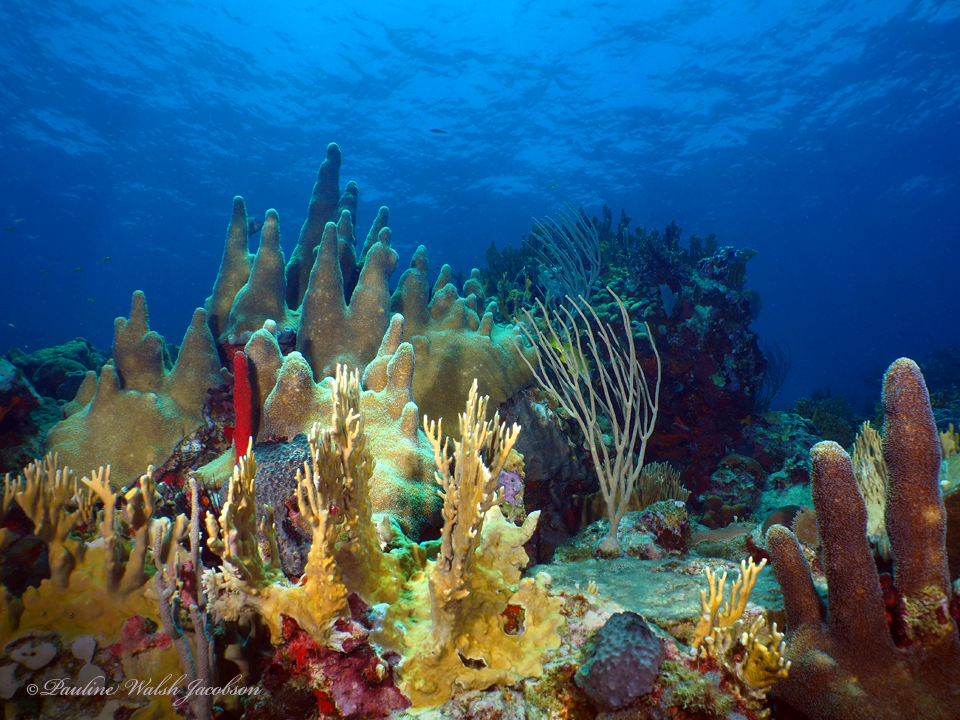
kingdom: Animalia
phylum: Cnidaria
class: Anthozoa
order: Scleractinia
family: Meandrinidae
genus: Dendrogyra
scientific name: Dendrogyra cylindrus
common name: Pillar coral
